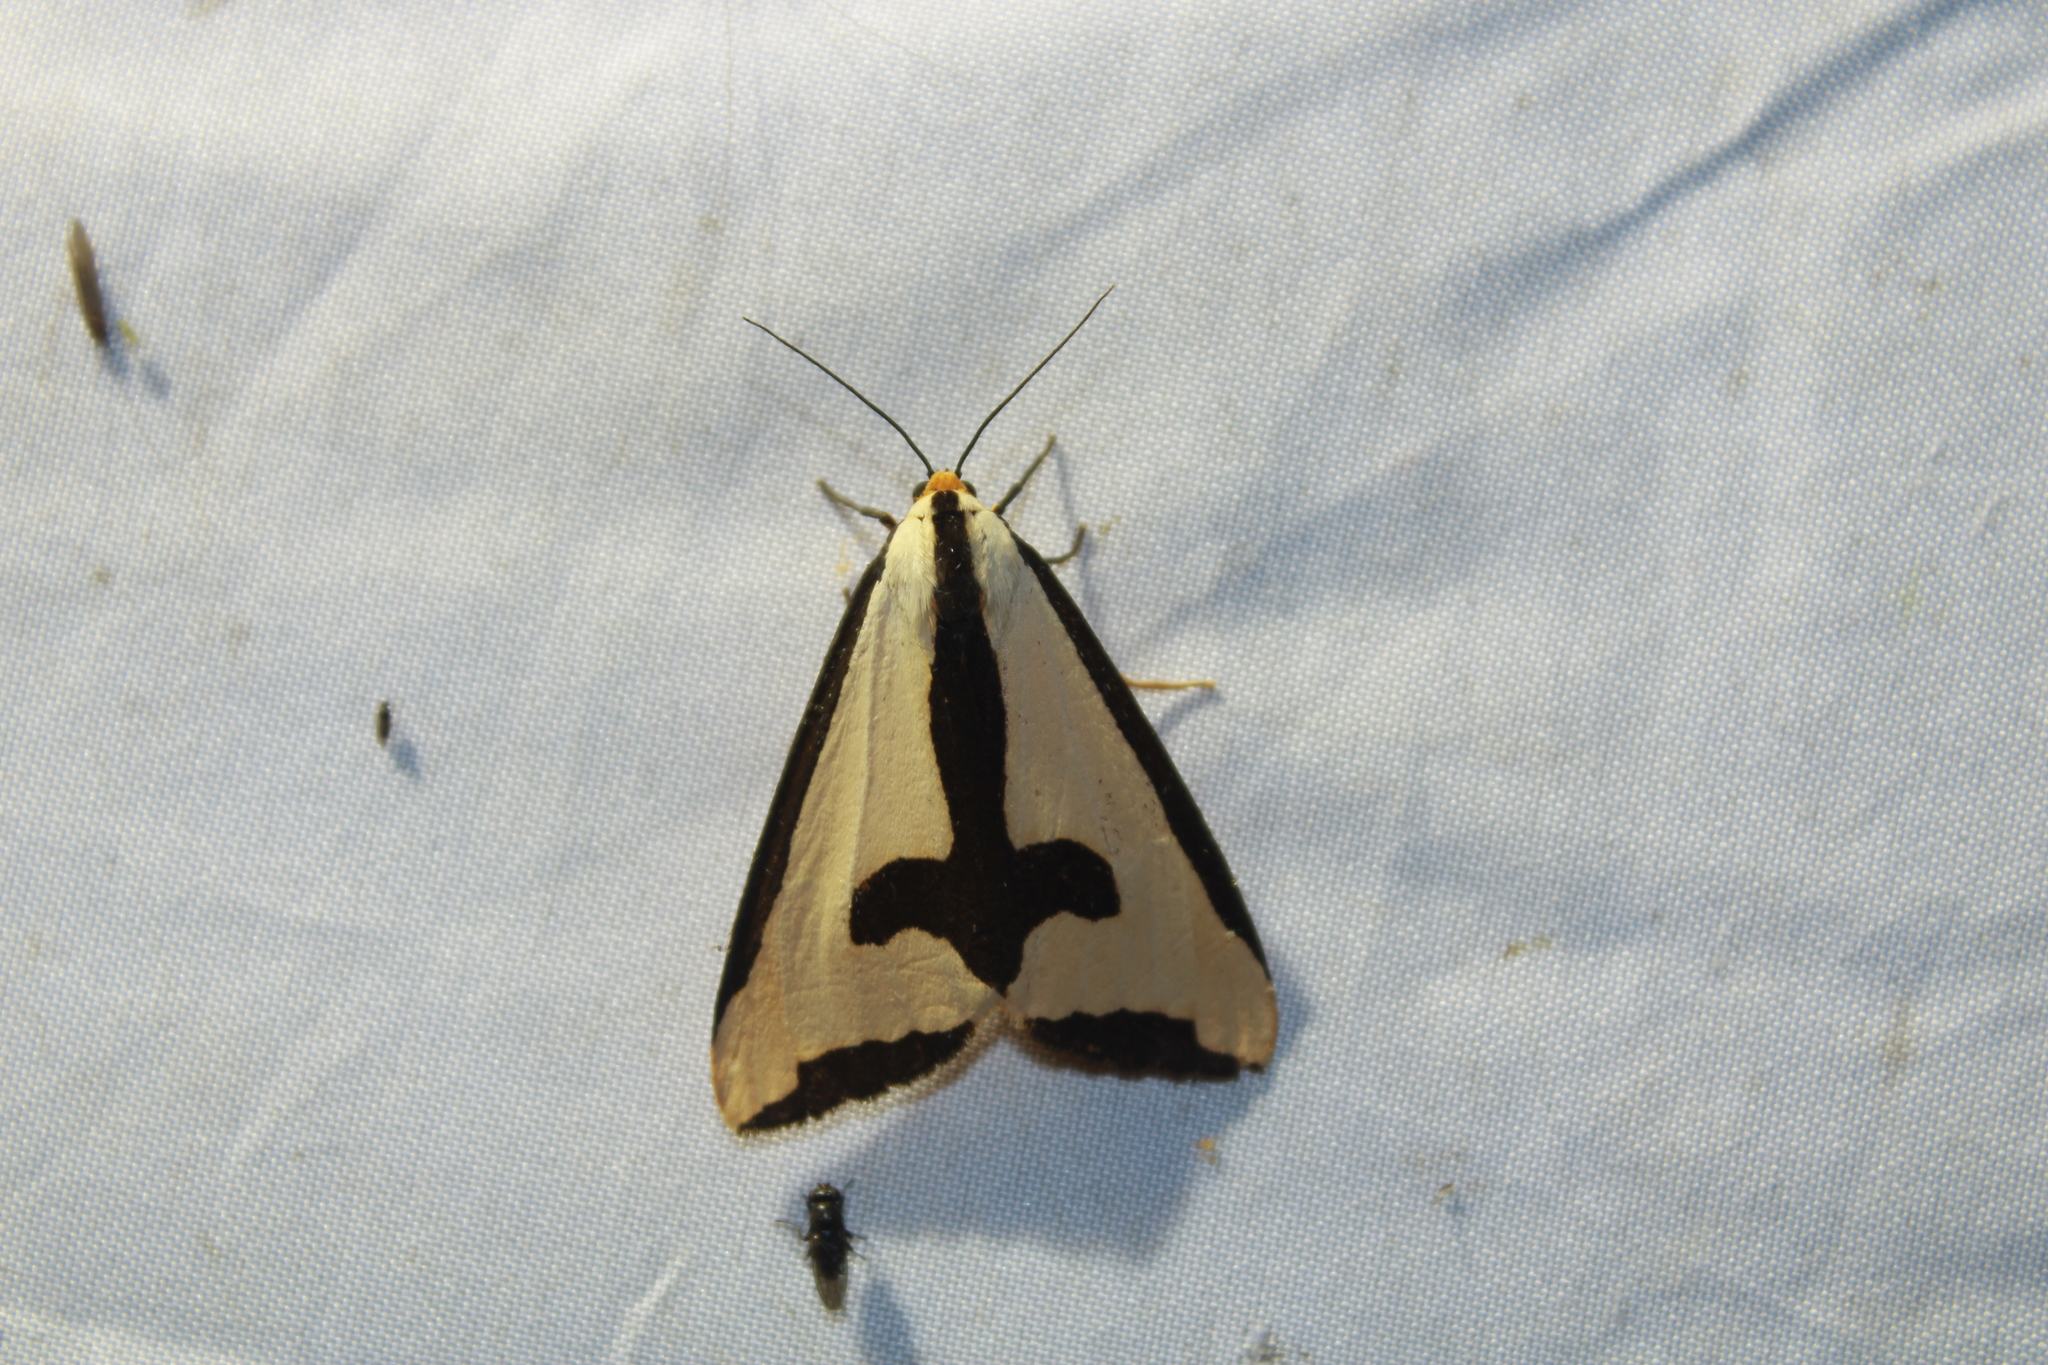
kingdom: Animalia
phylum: Arthropoda
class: Insecta
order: Lepidoptera
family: Erebidae
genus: Haploa
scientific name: Haploa clymene
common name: Clymene moth
